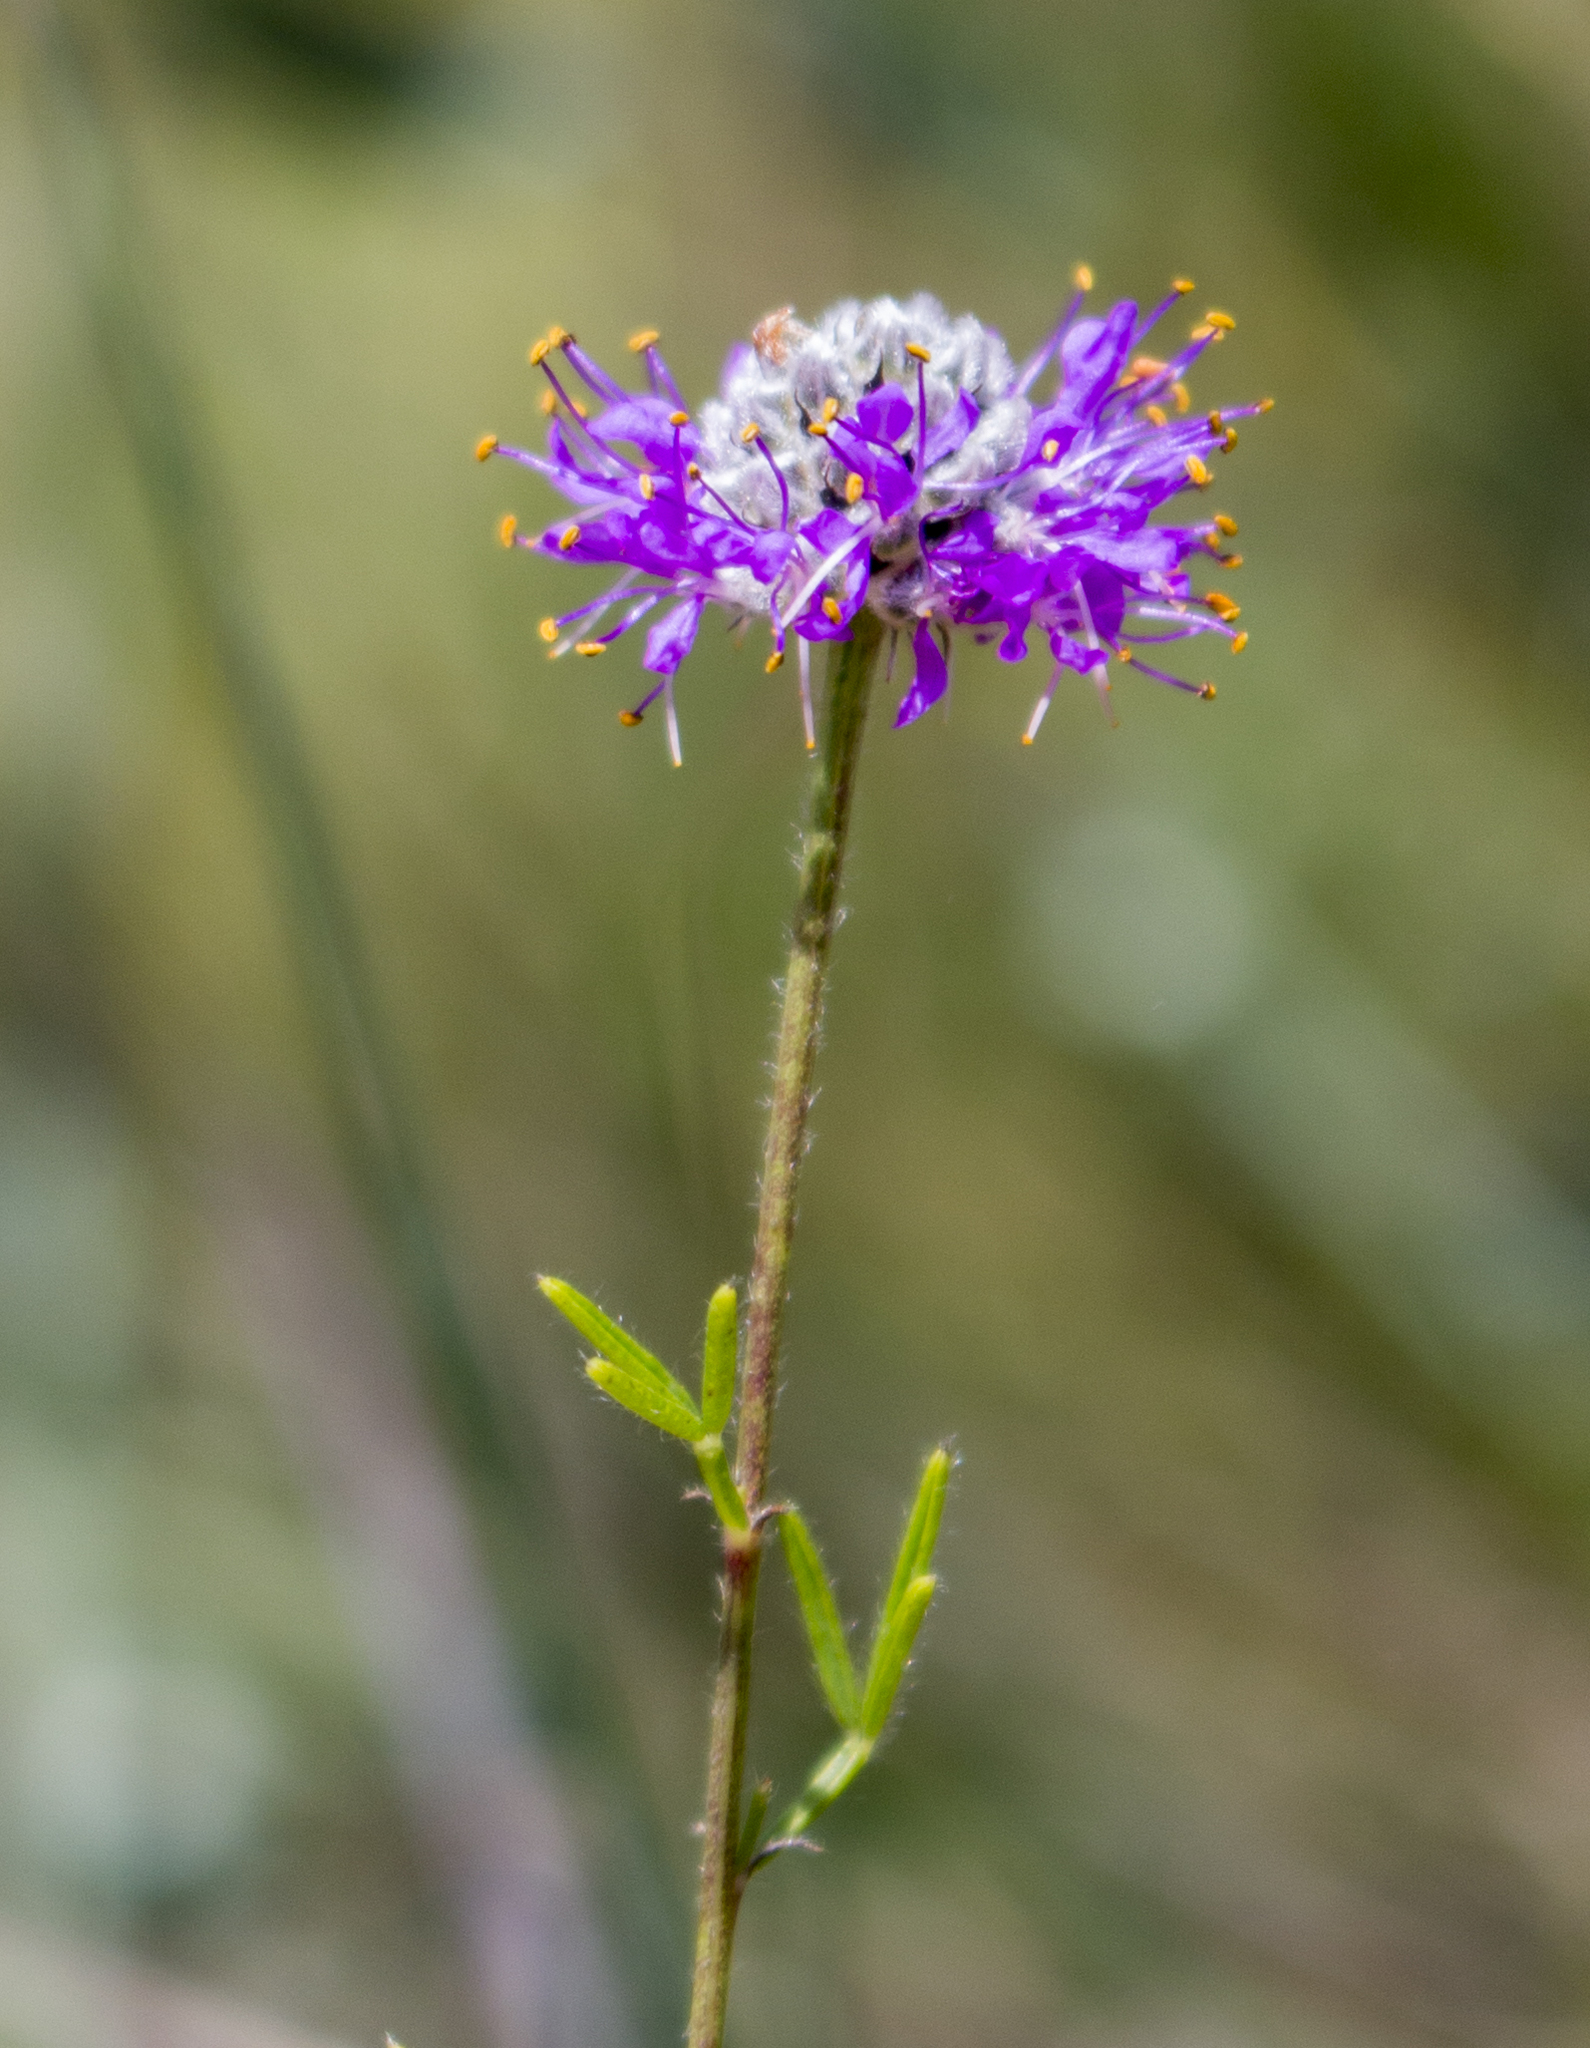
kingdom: Plantae
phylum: Tracheophyta
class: Magnoliopsida
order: Fabales
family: Fabaceae
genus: Dalea
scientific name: Dalea purpurea
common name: Purple prairie-clover
